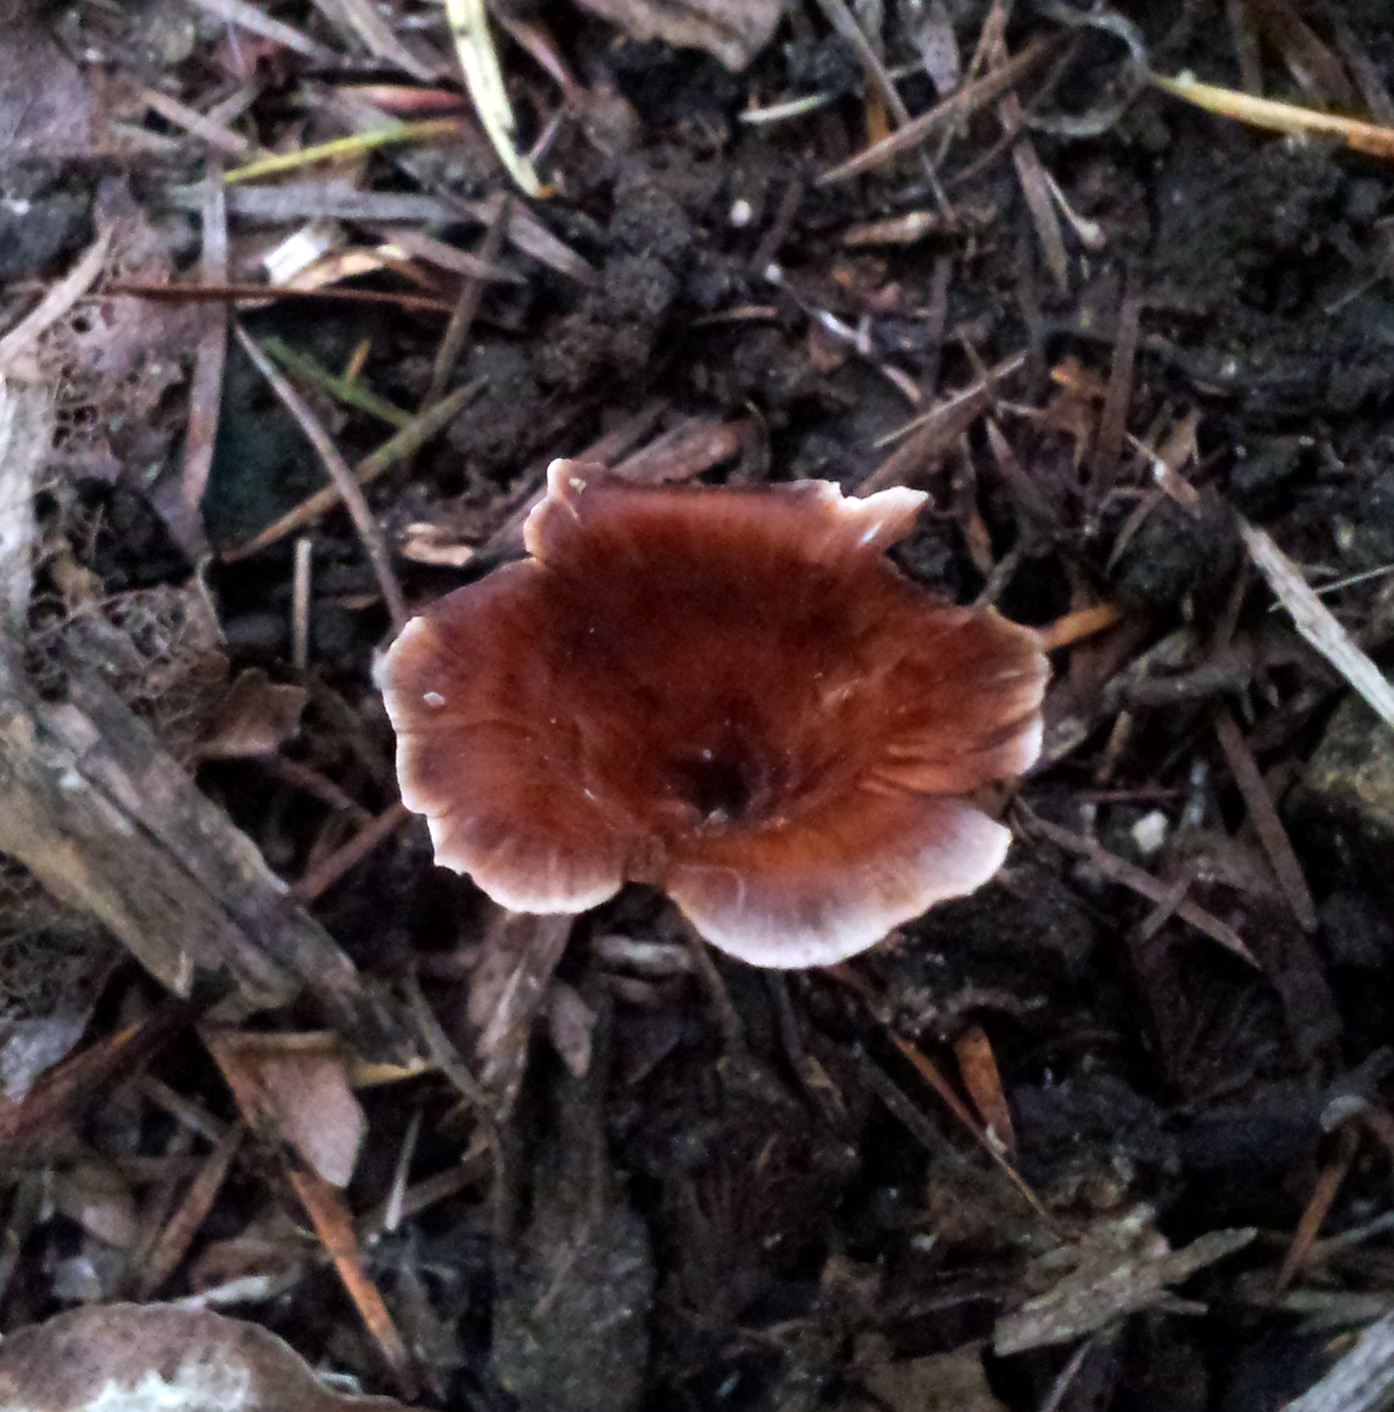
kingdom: Fungi
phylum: Basidiomycota
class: Agaricomycetes
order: Polyporales
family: Podoscyphaceae
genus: Podoscypha
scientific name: Podoscypha petalodes
